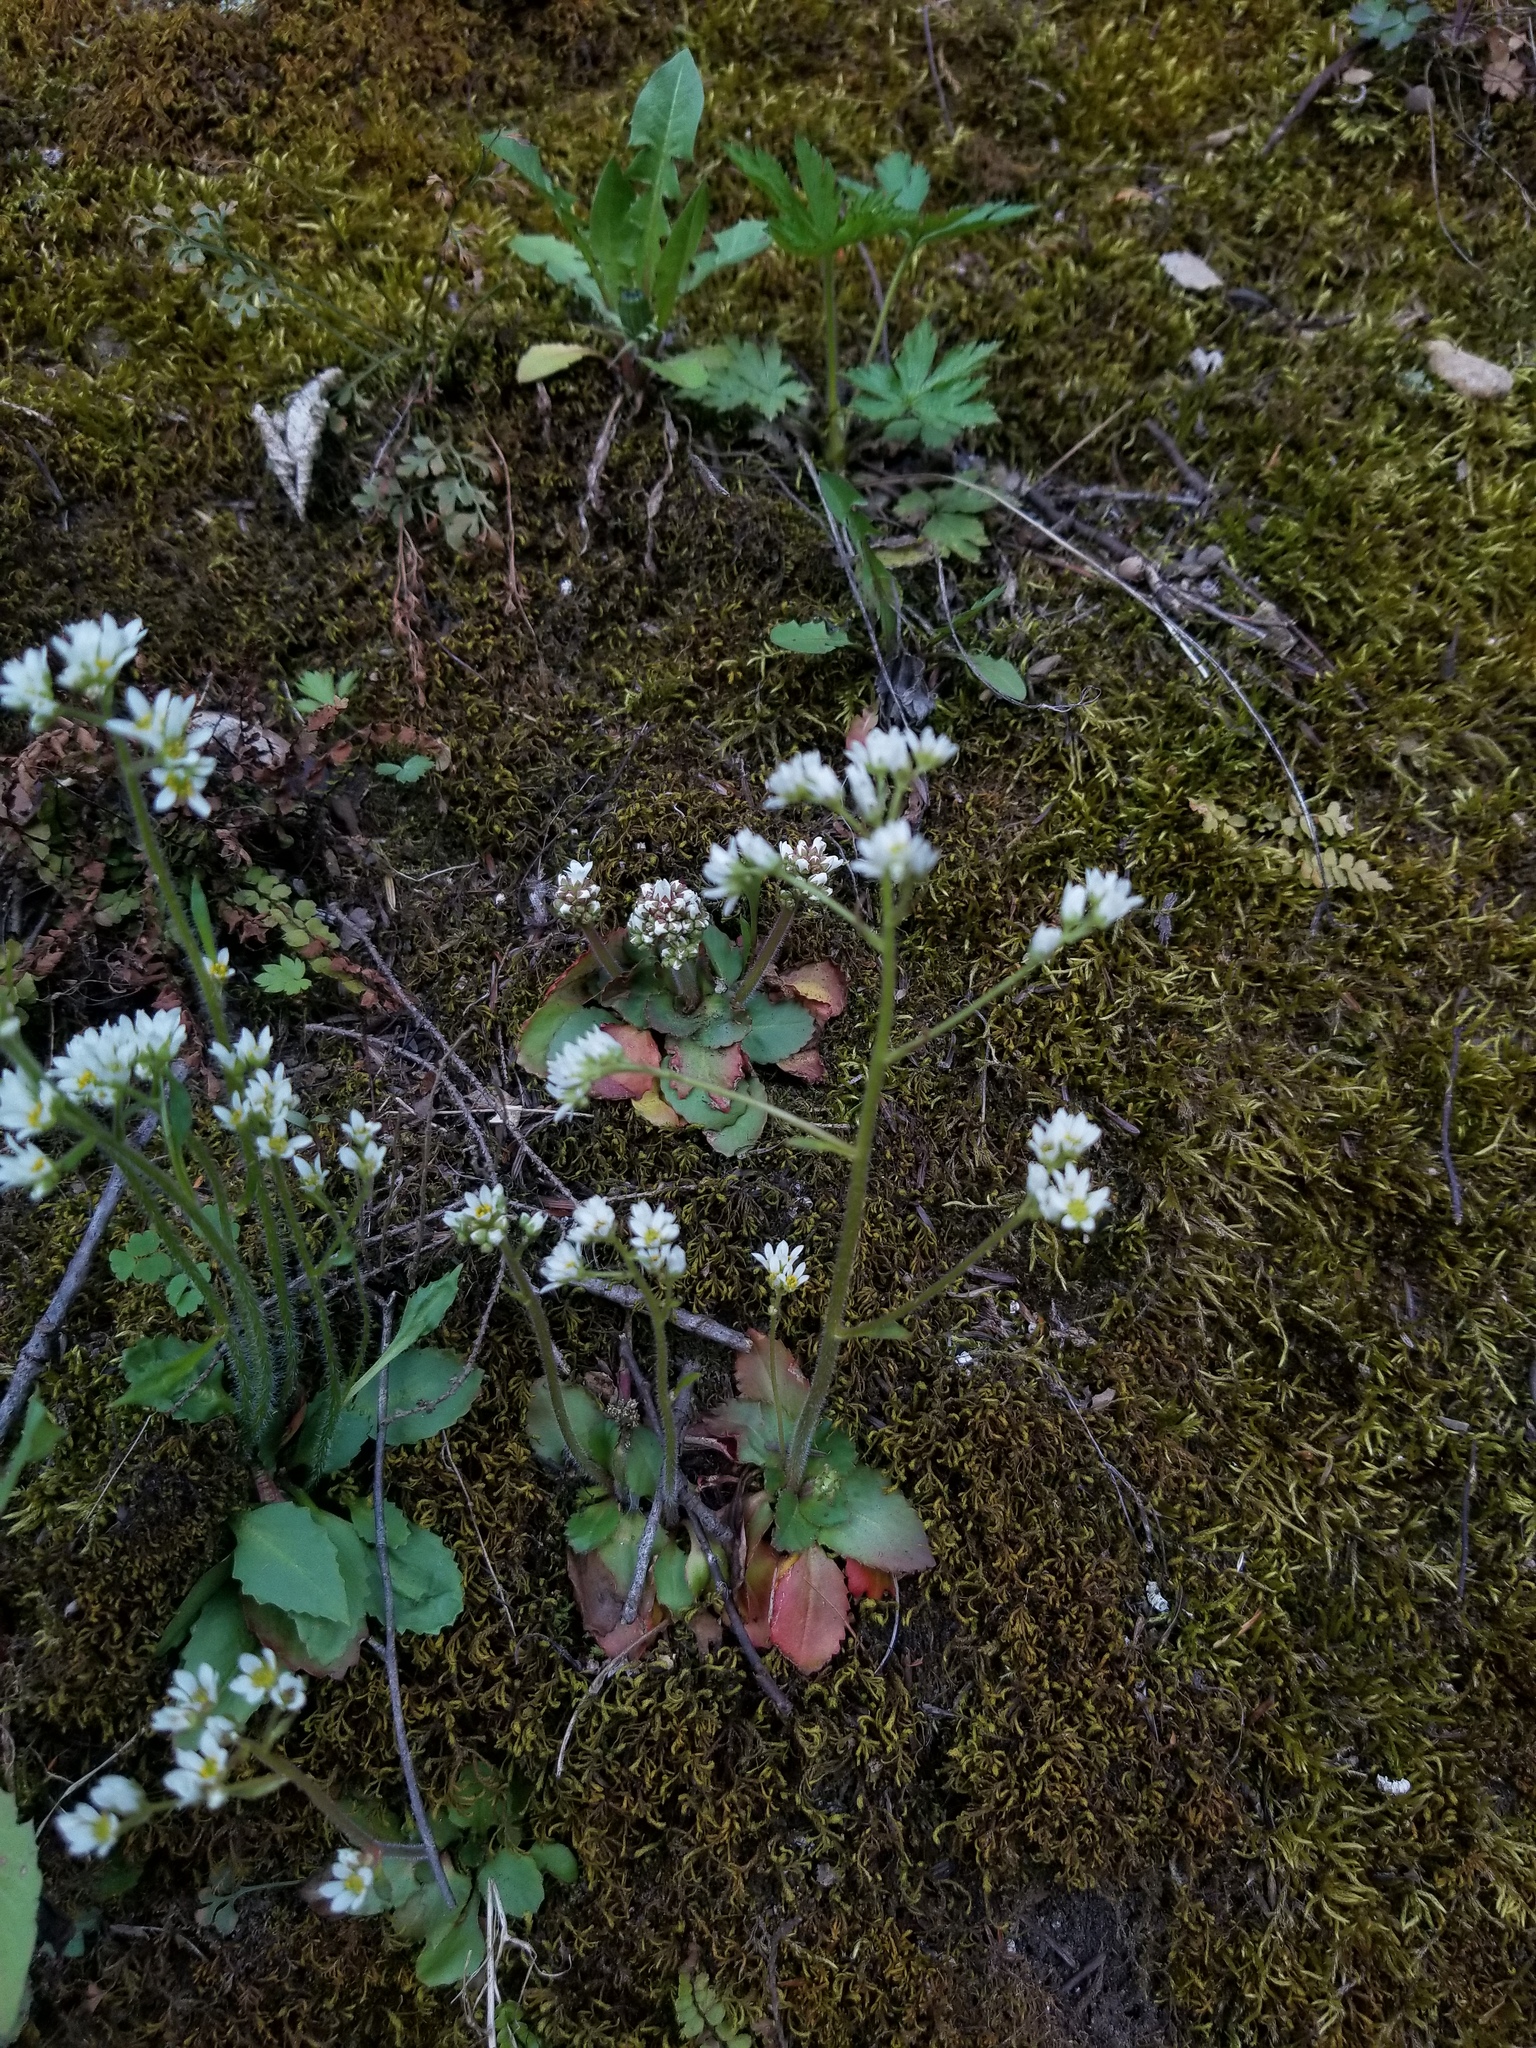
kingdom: Plantae
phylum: Tracheophyta
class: Magnoliopsida
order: Saxifragales
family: Saxifragaceae
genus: Micranthes
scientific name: Micranthes virginiensis
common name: Early saxifrage
